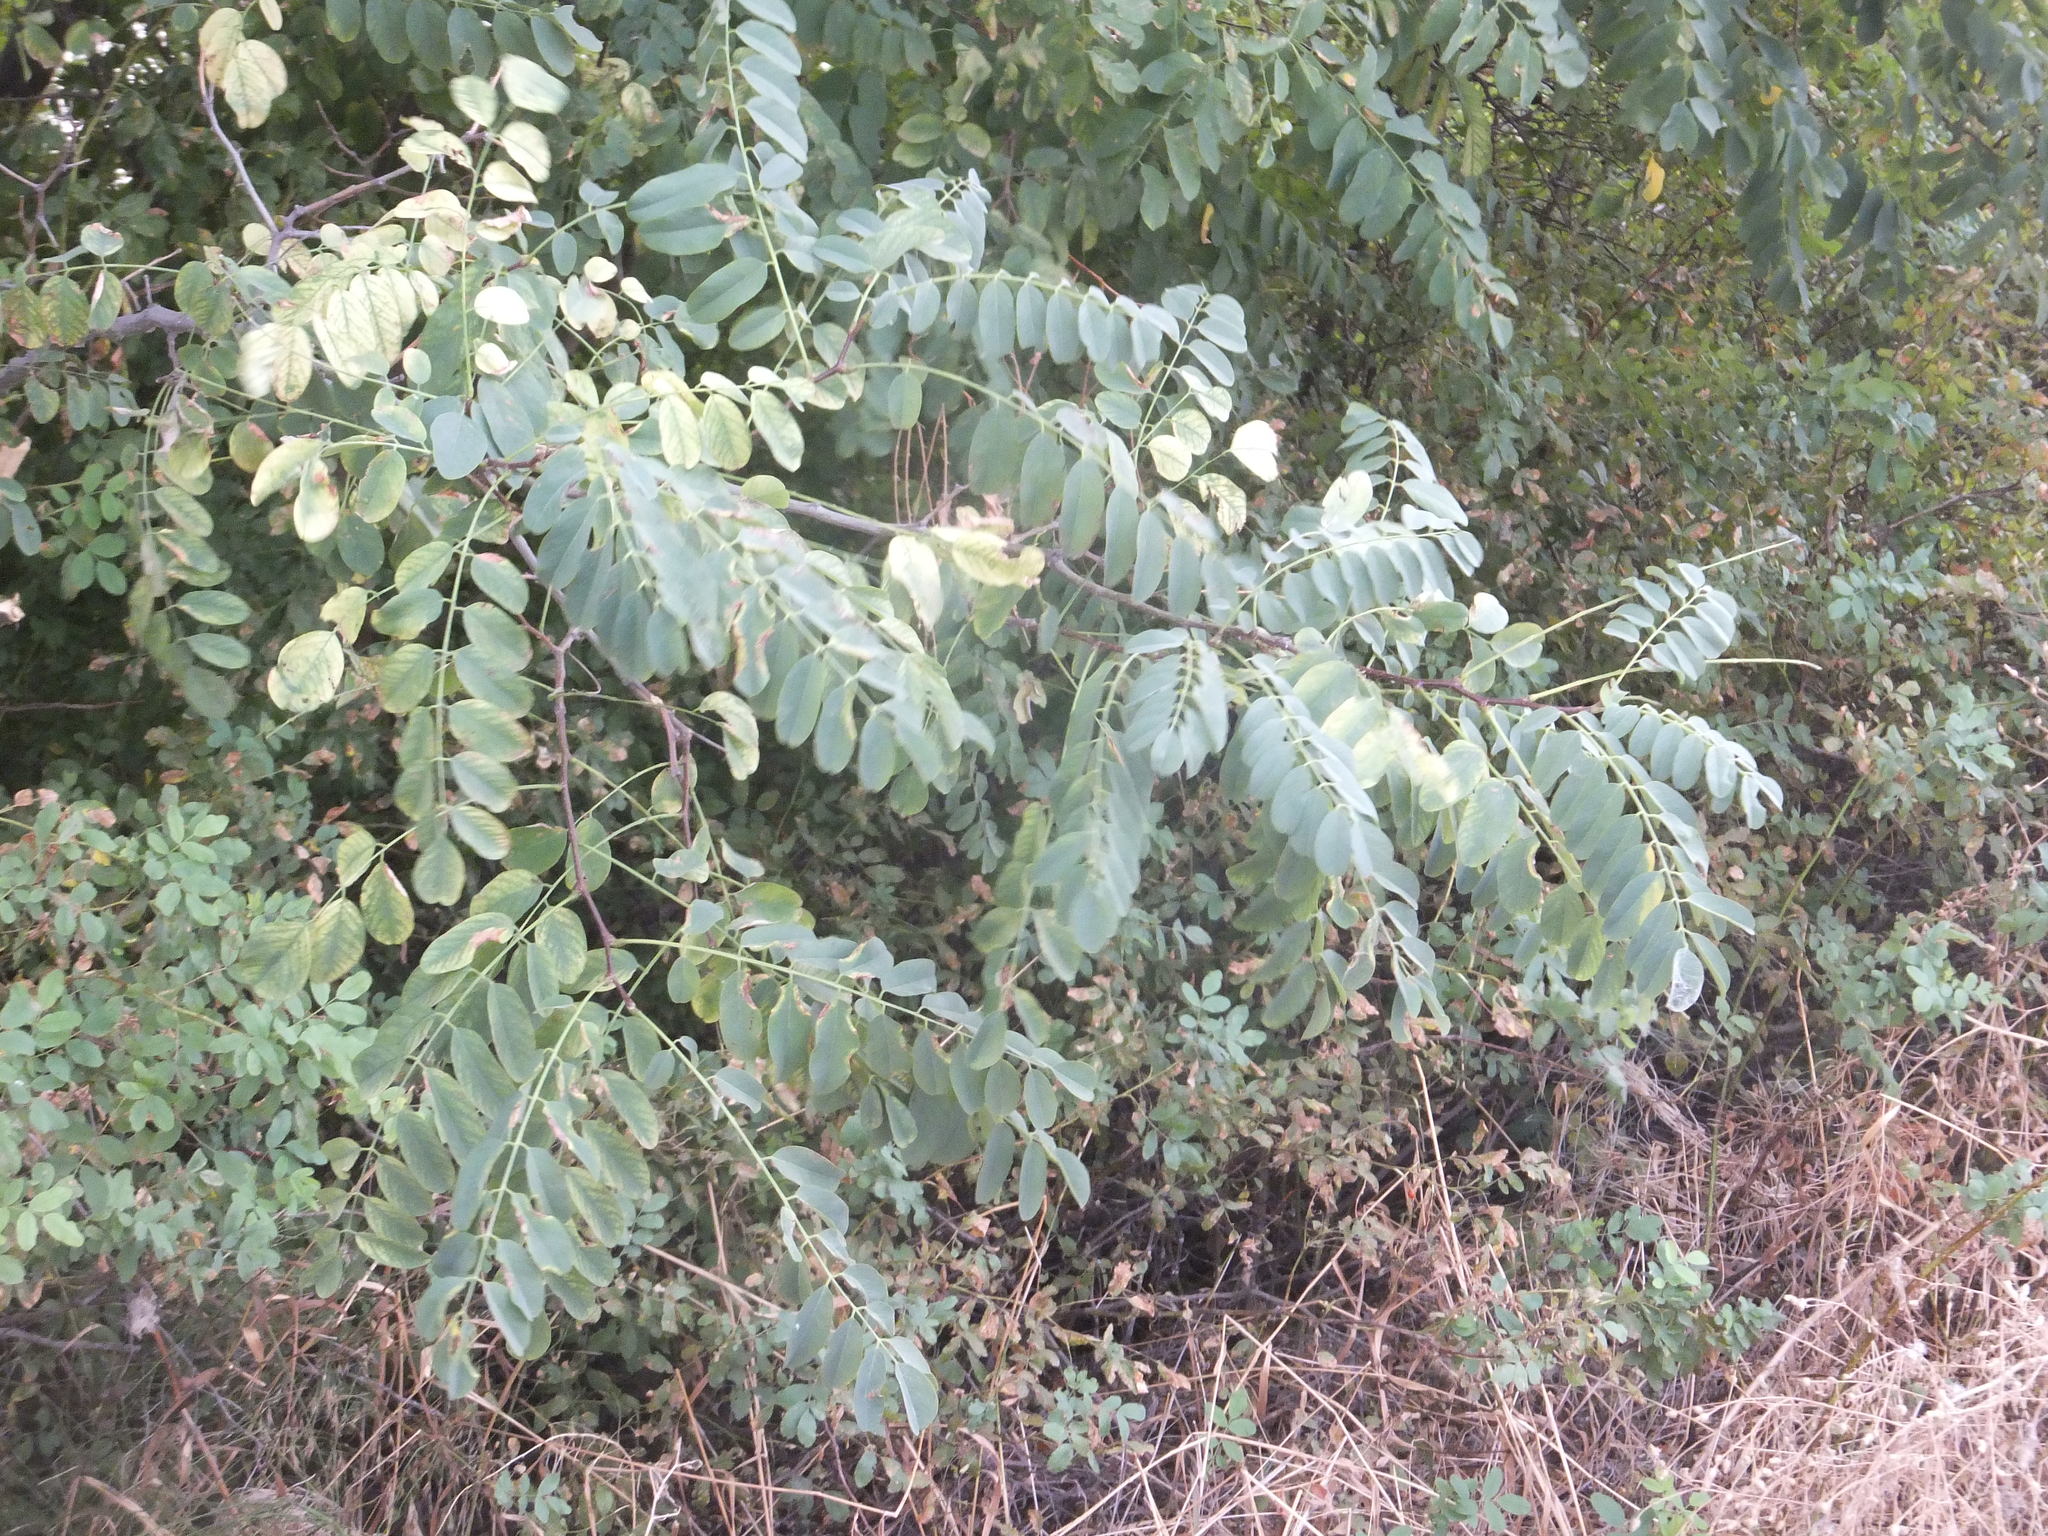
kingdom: Plantae
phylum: Tracheophyta
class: Magnoliopsida
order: Fabales
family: Fabaceae
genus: Robinia
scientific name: Robinia pseudoacacia
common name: Black locust
